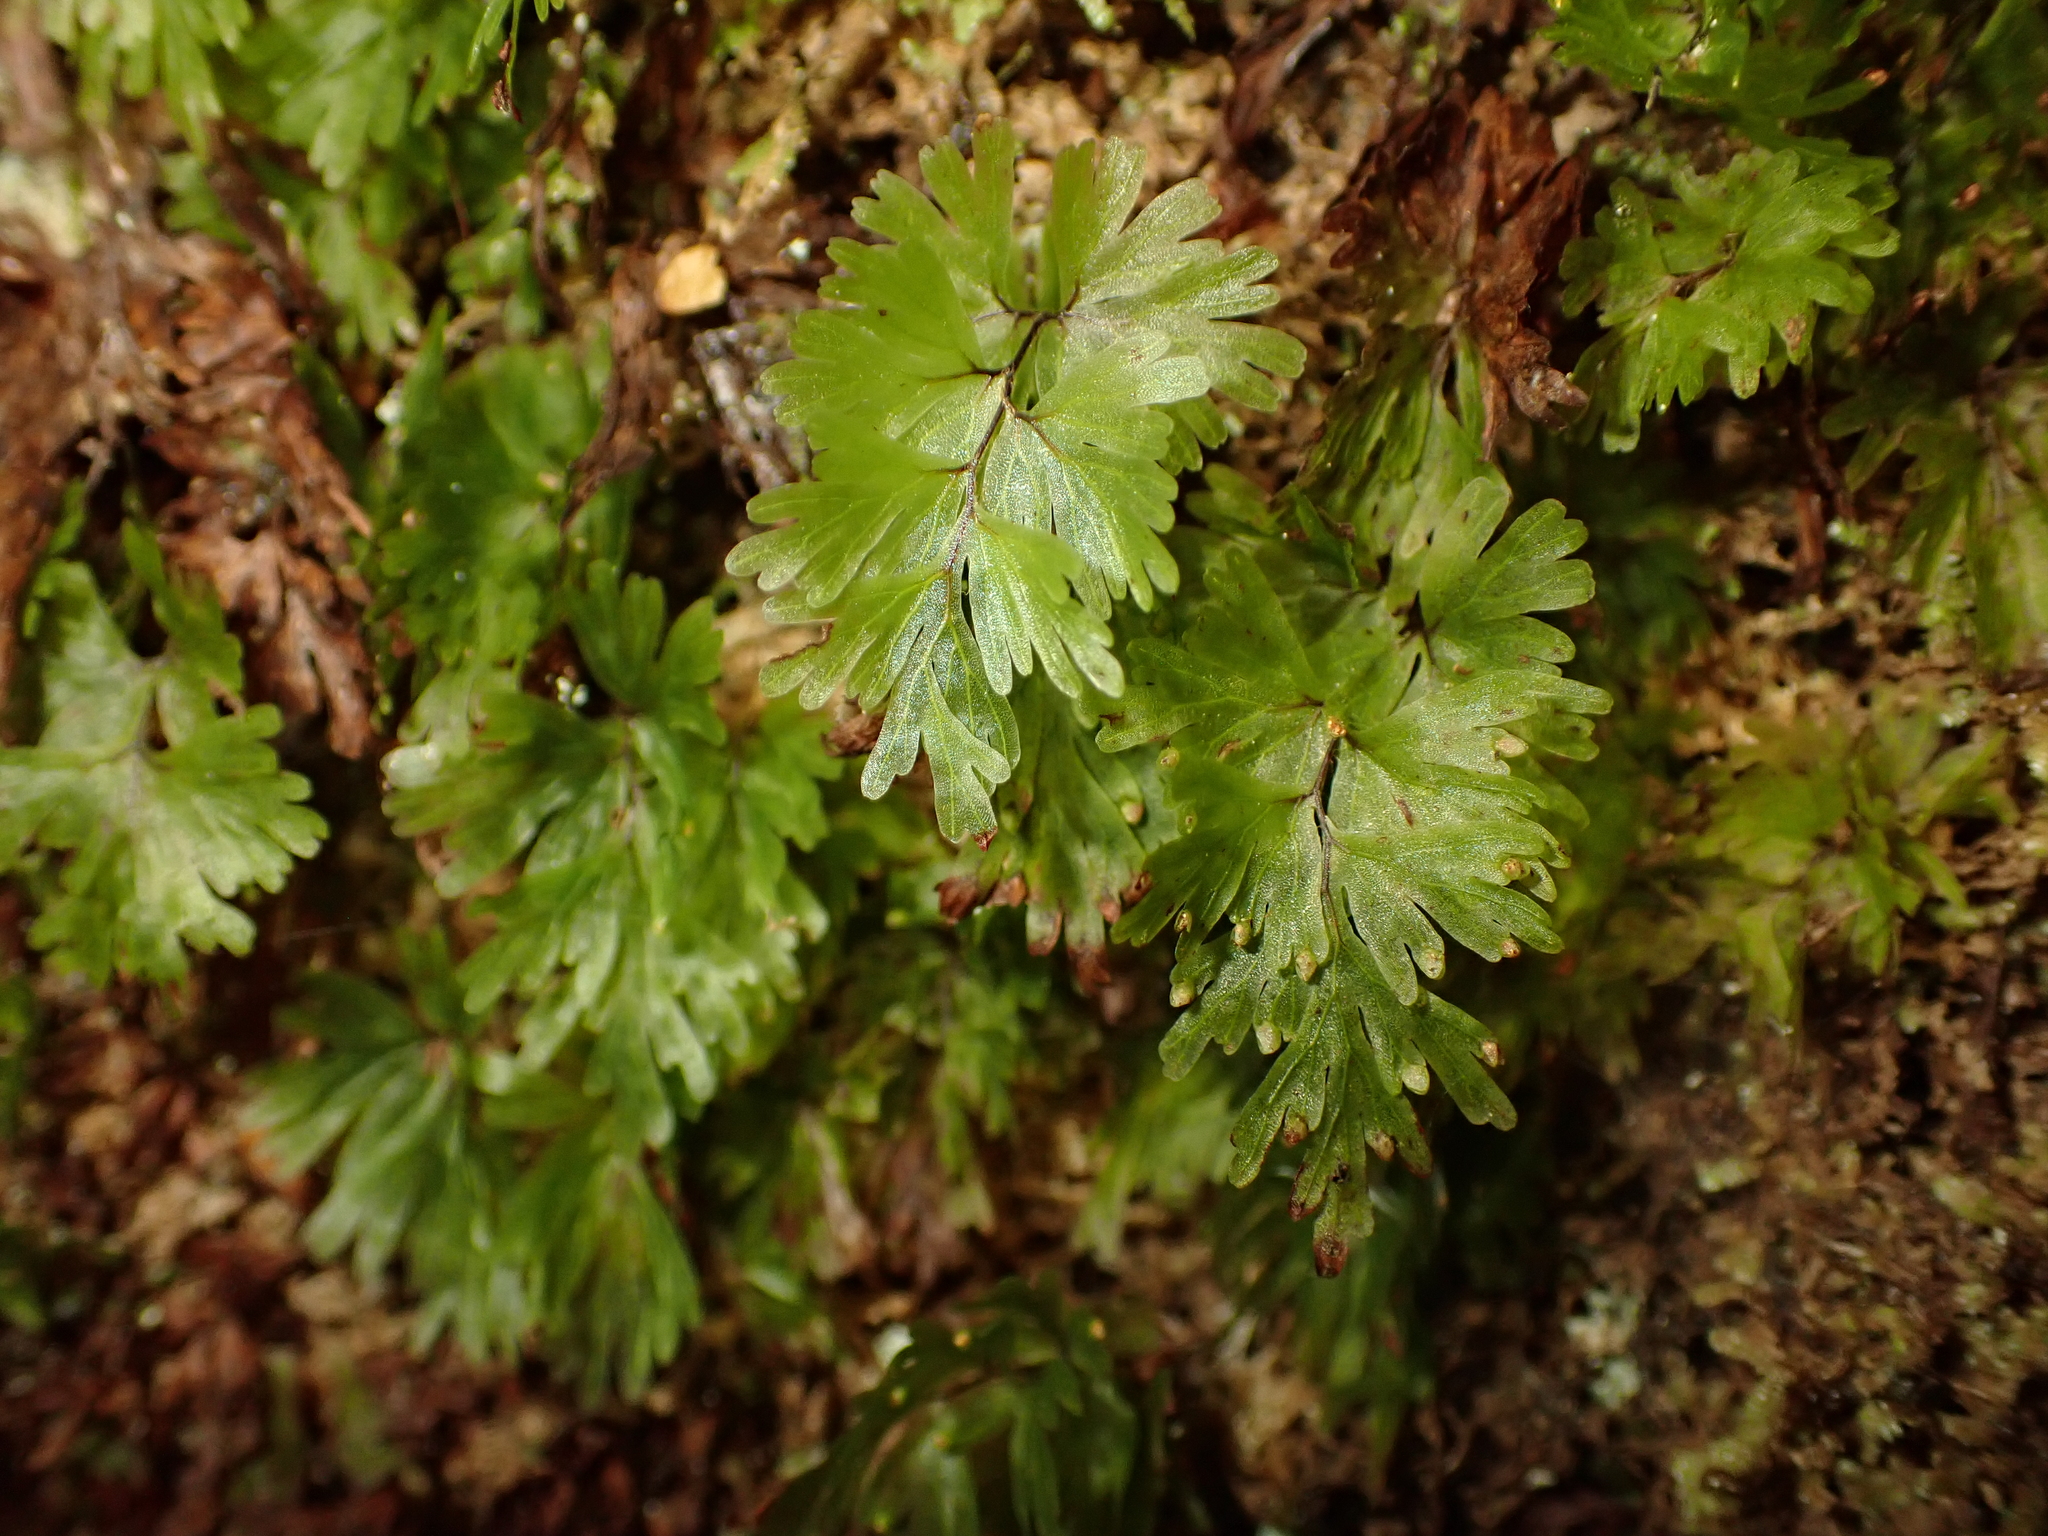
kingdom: Plantae
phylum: Tracheophyta
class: Polypodiopsida
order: Hymenophyllales
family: Hymenophyllaceae
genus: Hymenophyllum
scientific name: Hymenophyllum flabellatum
